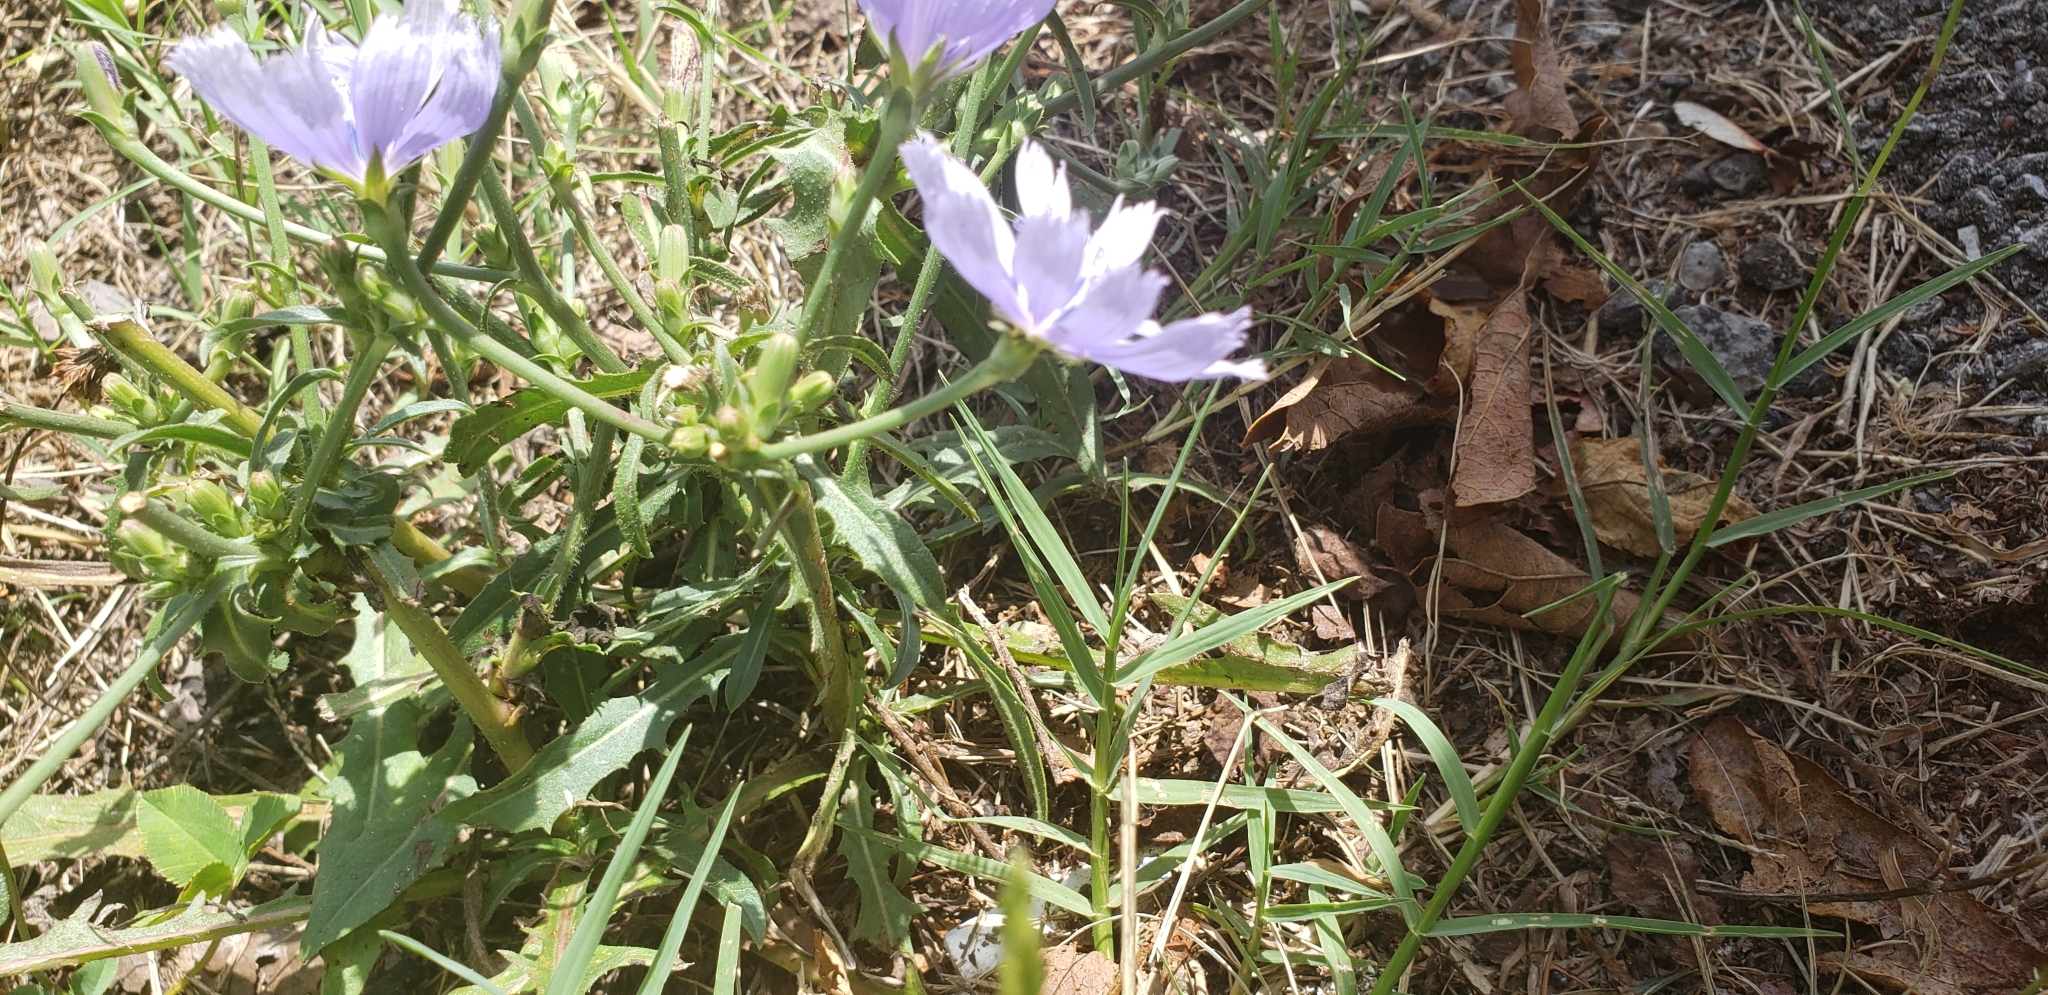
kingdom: Plantae
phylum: Tracheophyta
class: Magnoliopsida
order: Asterales
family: Asteraceae
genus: Cichorium
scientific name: Cichorium intybus
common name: Chicory
